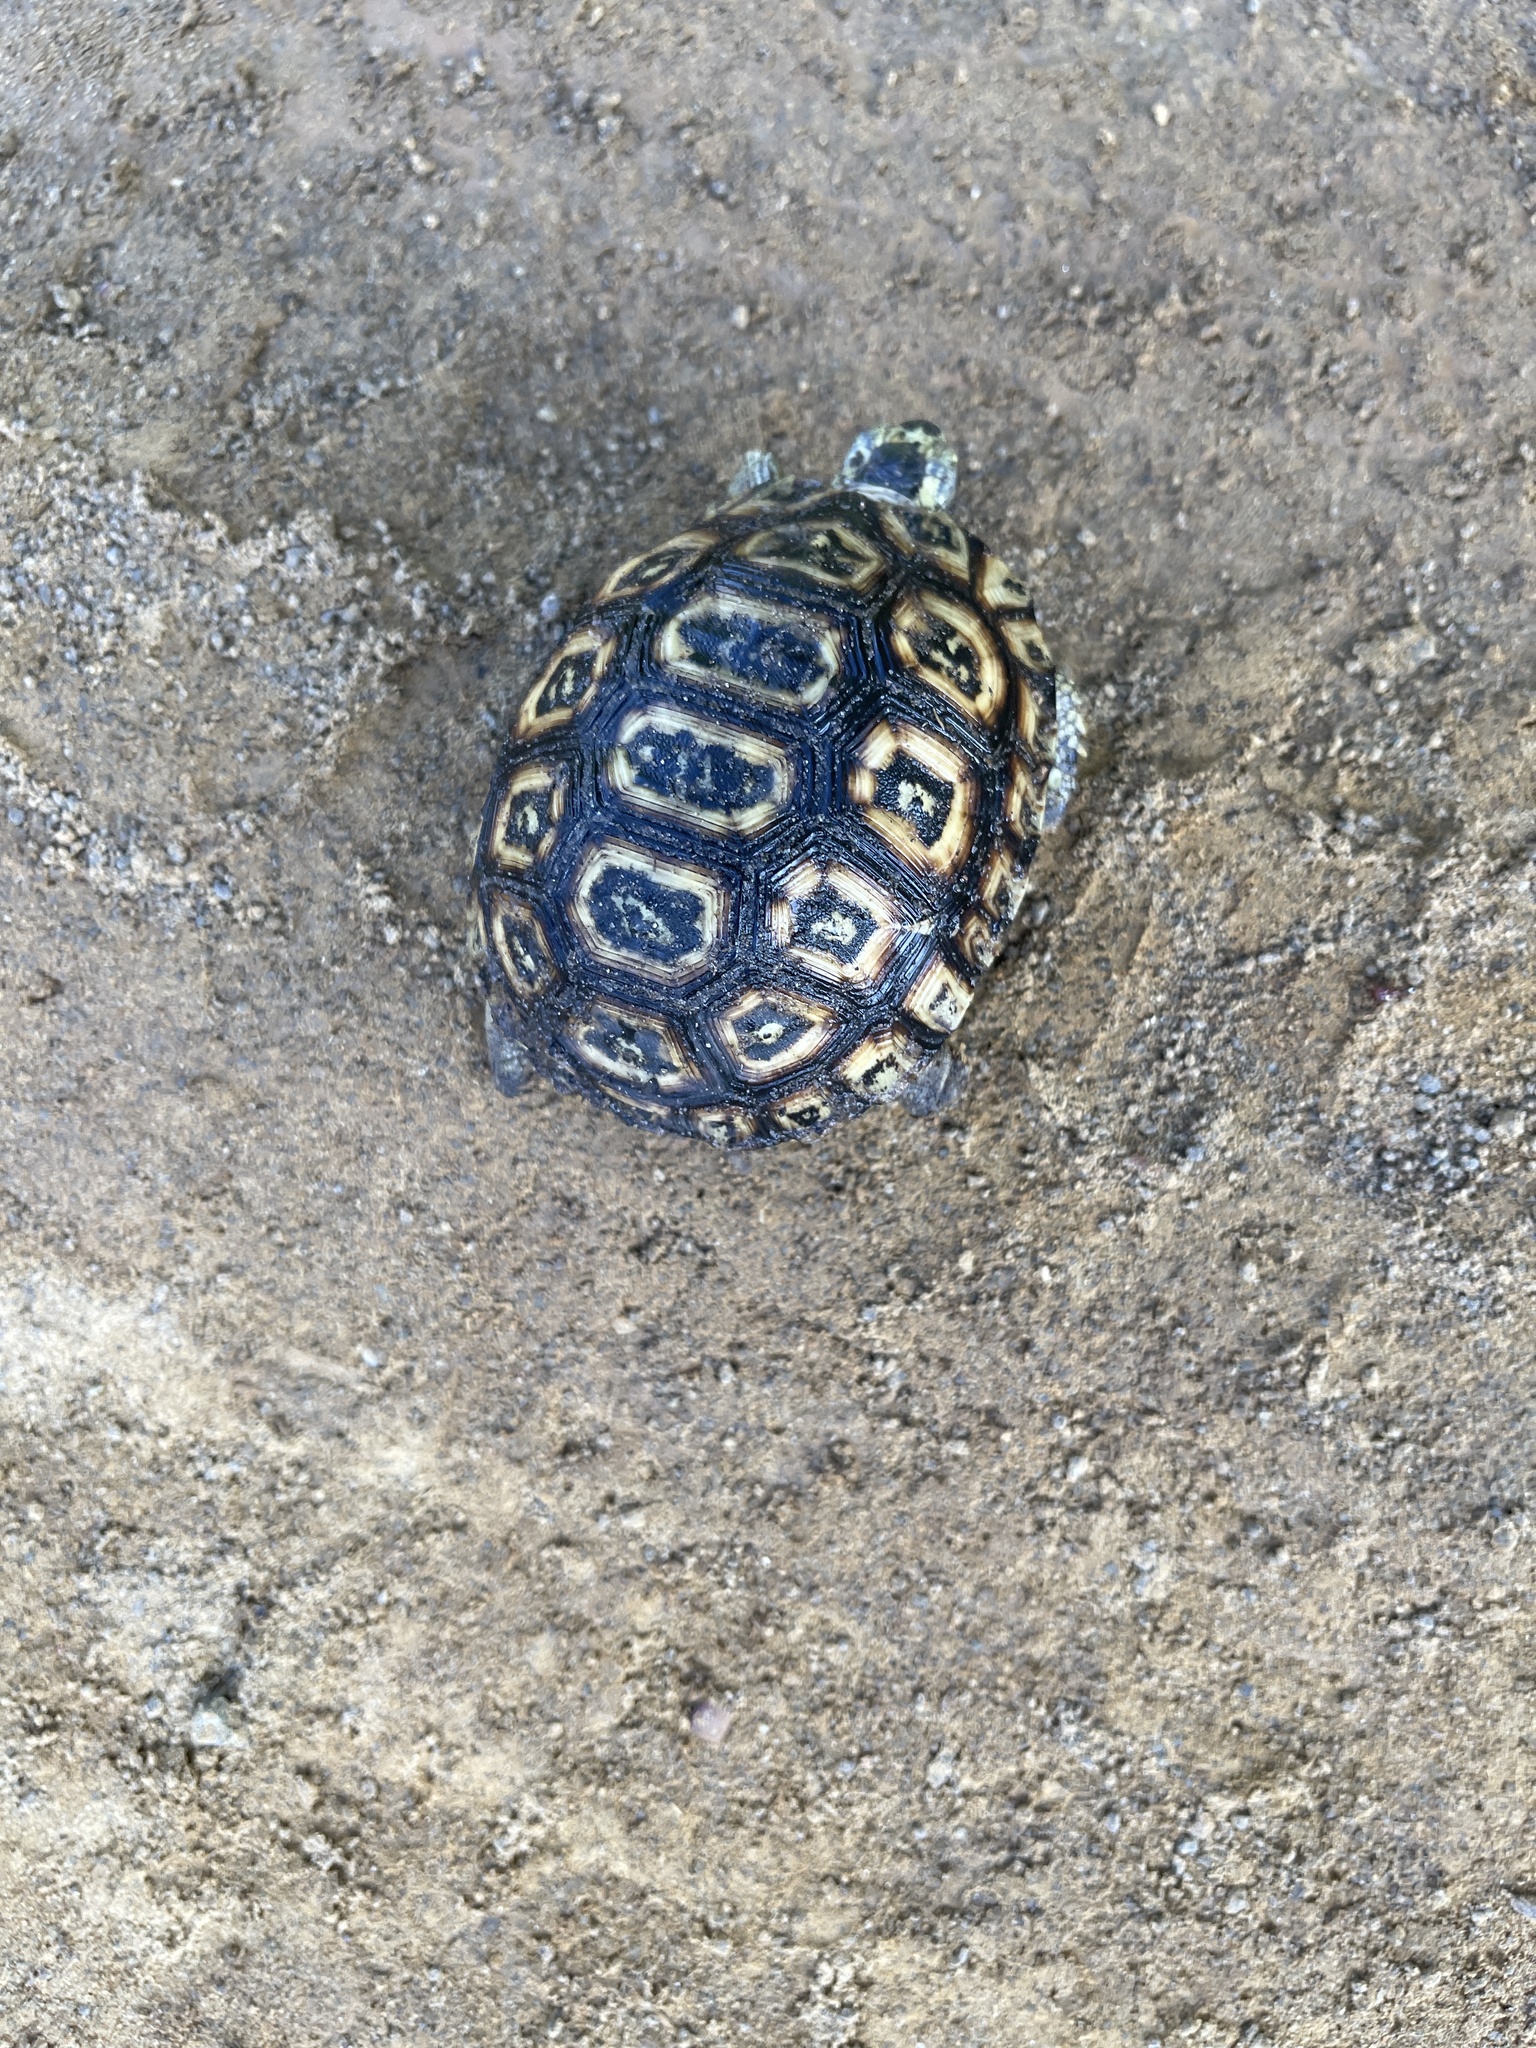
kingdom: Animalia
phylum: Chordata
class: Testudines
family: Testudinidae
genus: Kinixys
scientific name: Kinixys zombensis
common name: Southeastern hinge-back tortoise
